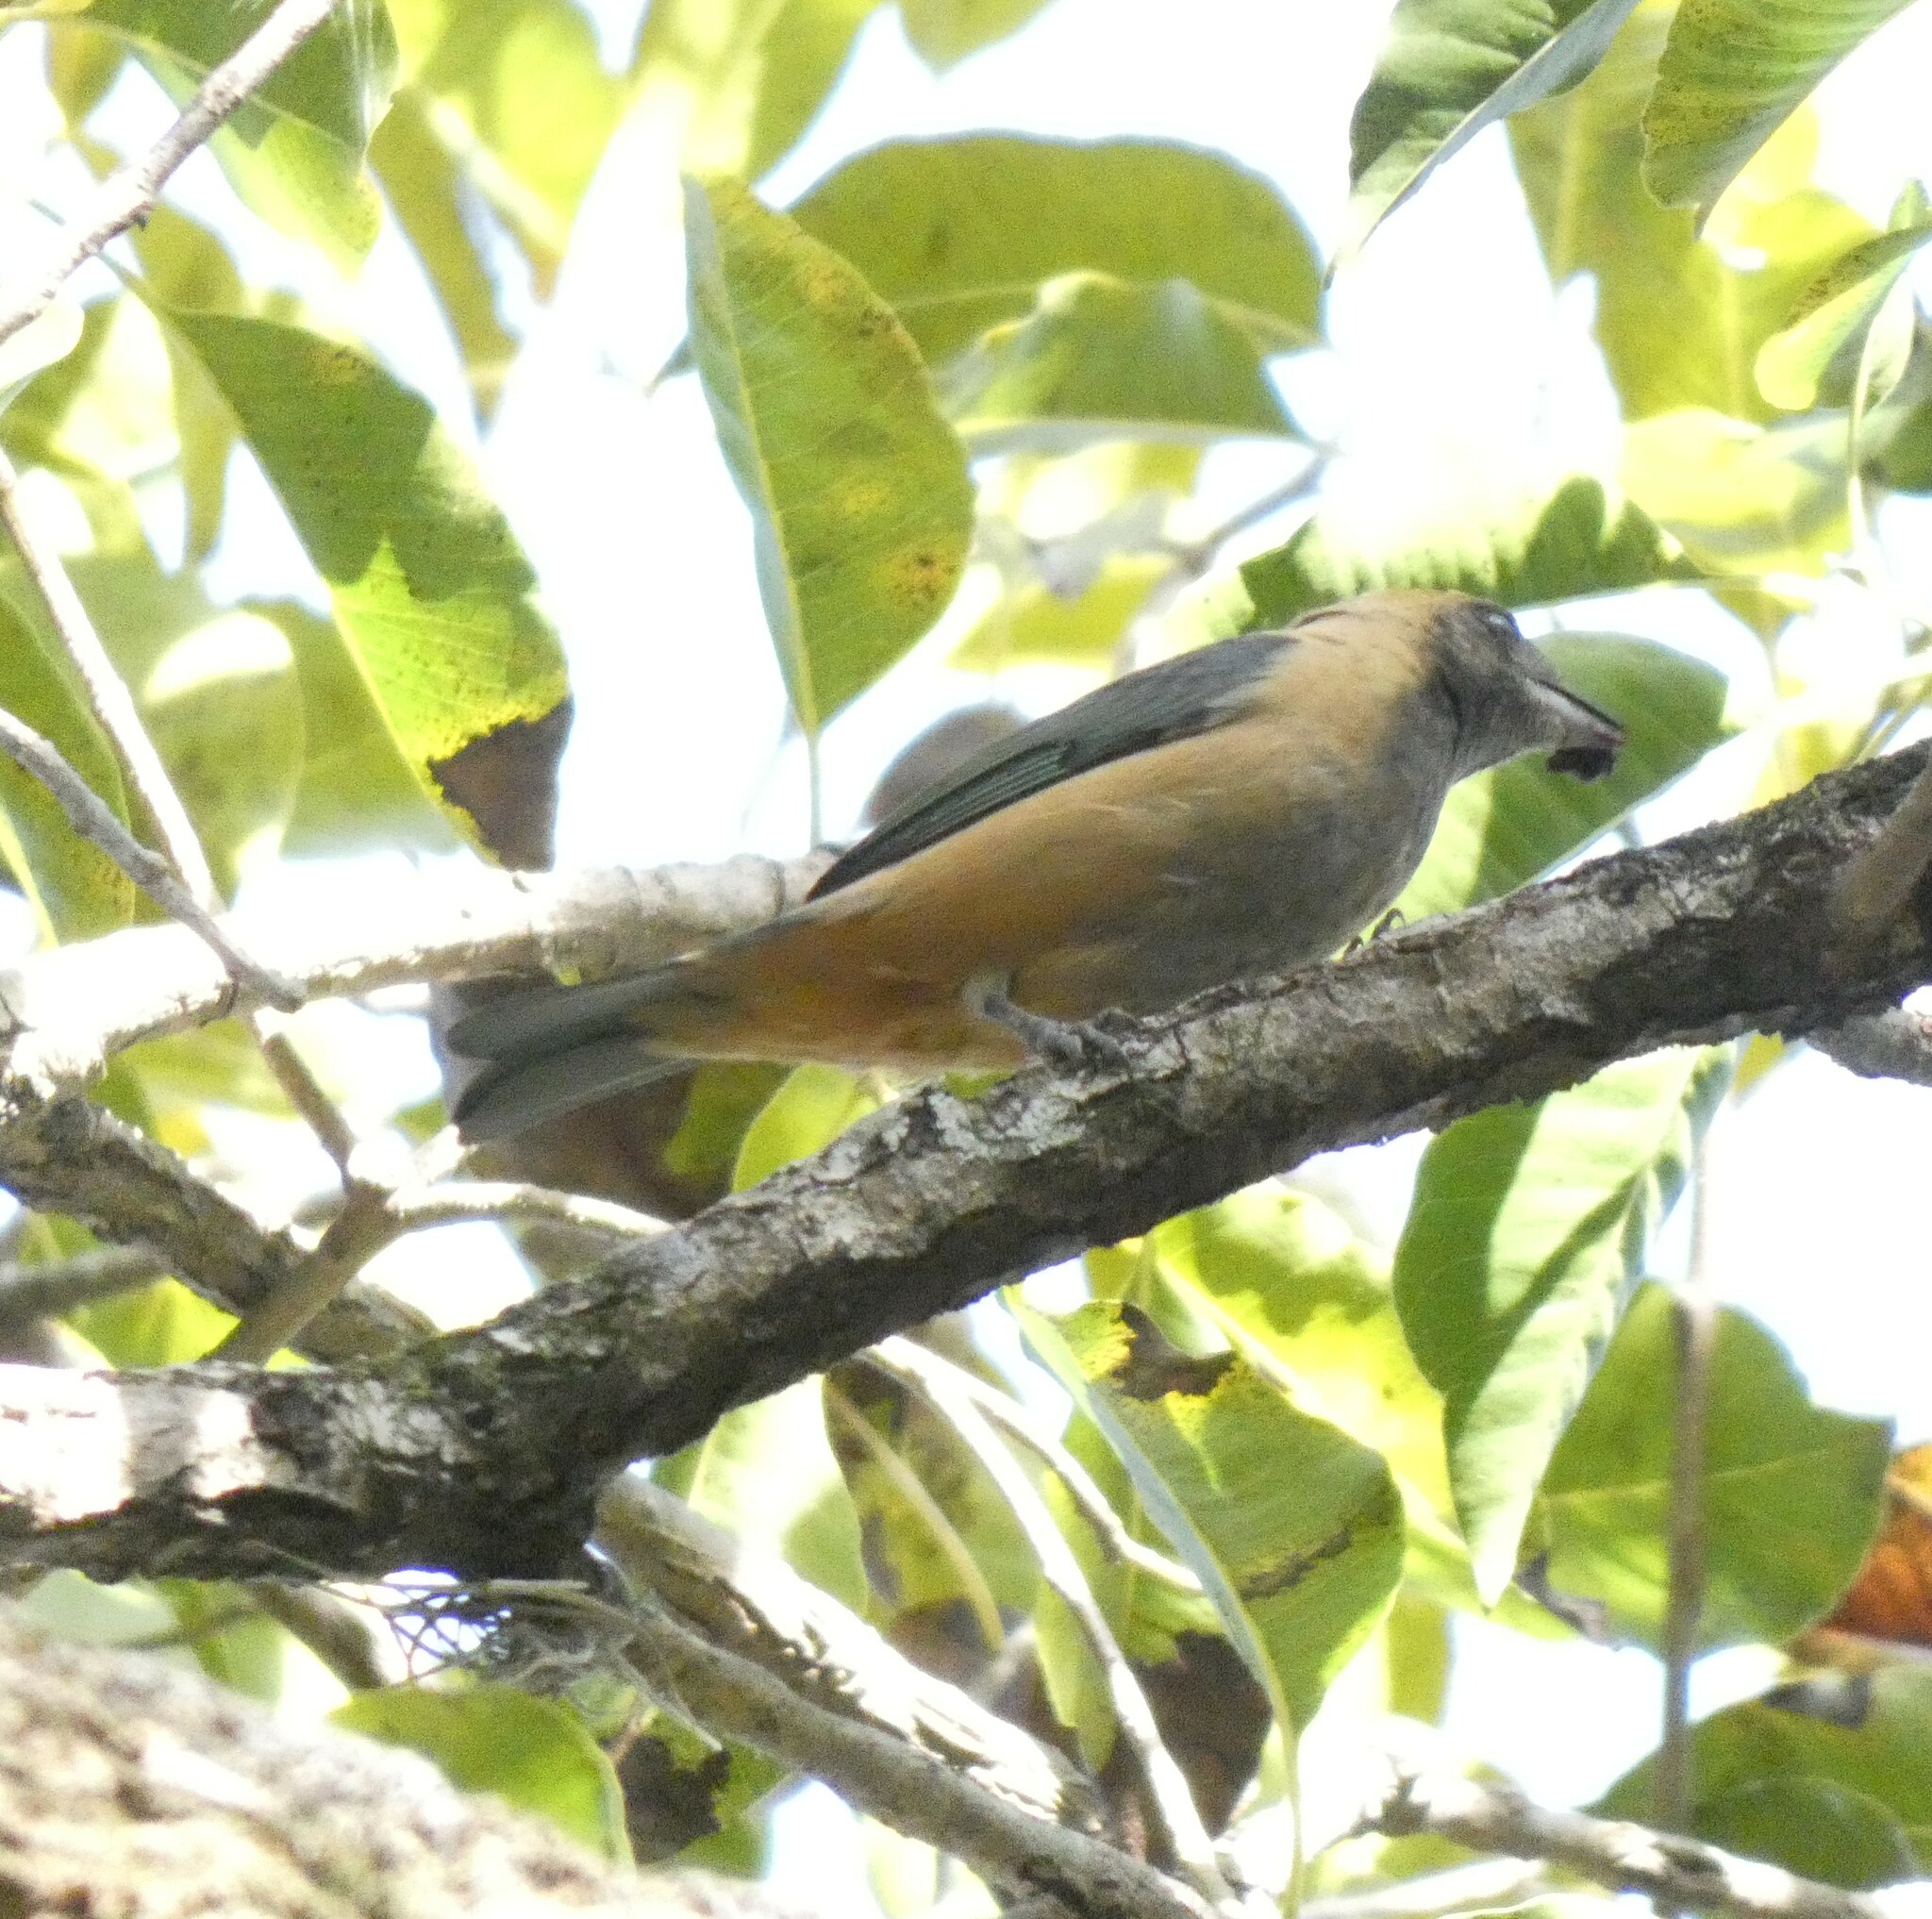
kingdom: Animalia
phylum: Chordata
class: Aves
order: Passeriformes
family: Thraupidae
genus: Stilpnia
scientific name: Stilpnia cayana
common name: Burnished-buff tanager
